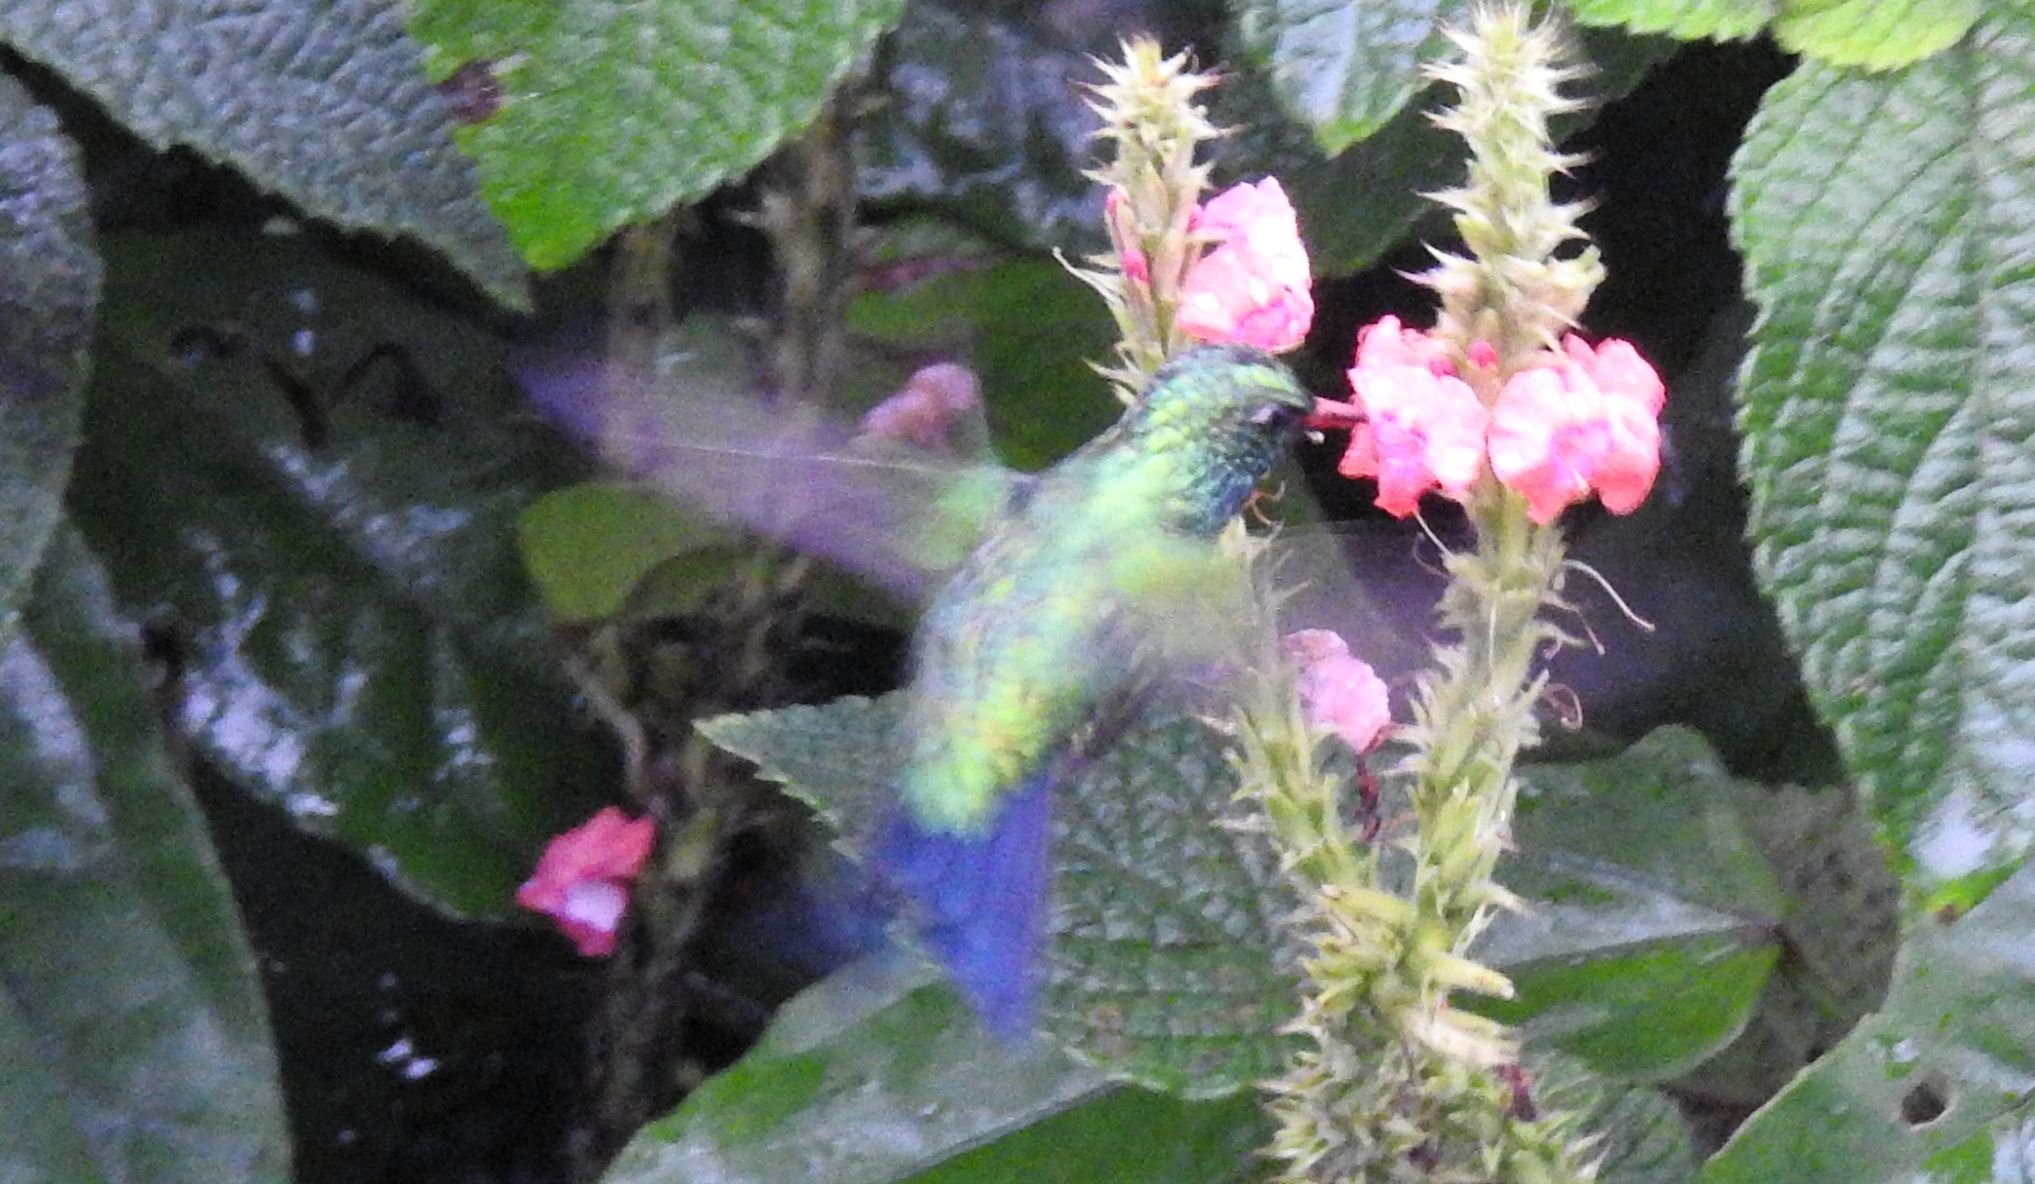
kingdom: Animalia
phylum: Chordata
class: Aves
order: Apodiformes
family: Trochilidae
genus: Cynanthus
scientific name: Cynanthus canivetii
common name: Canivet's emerald
